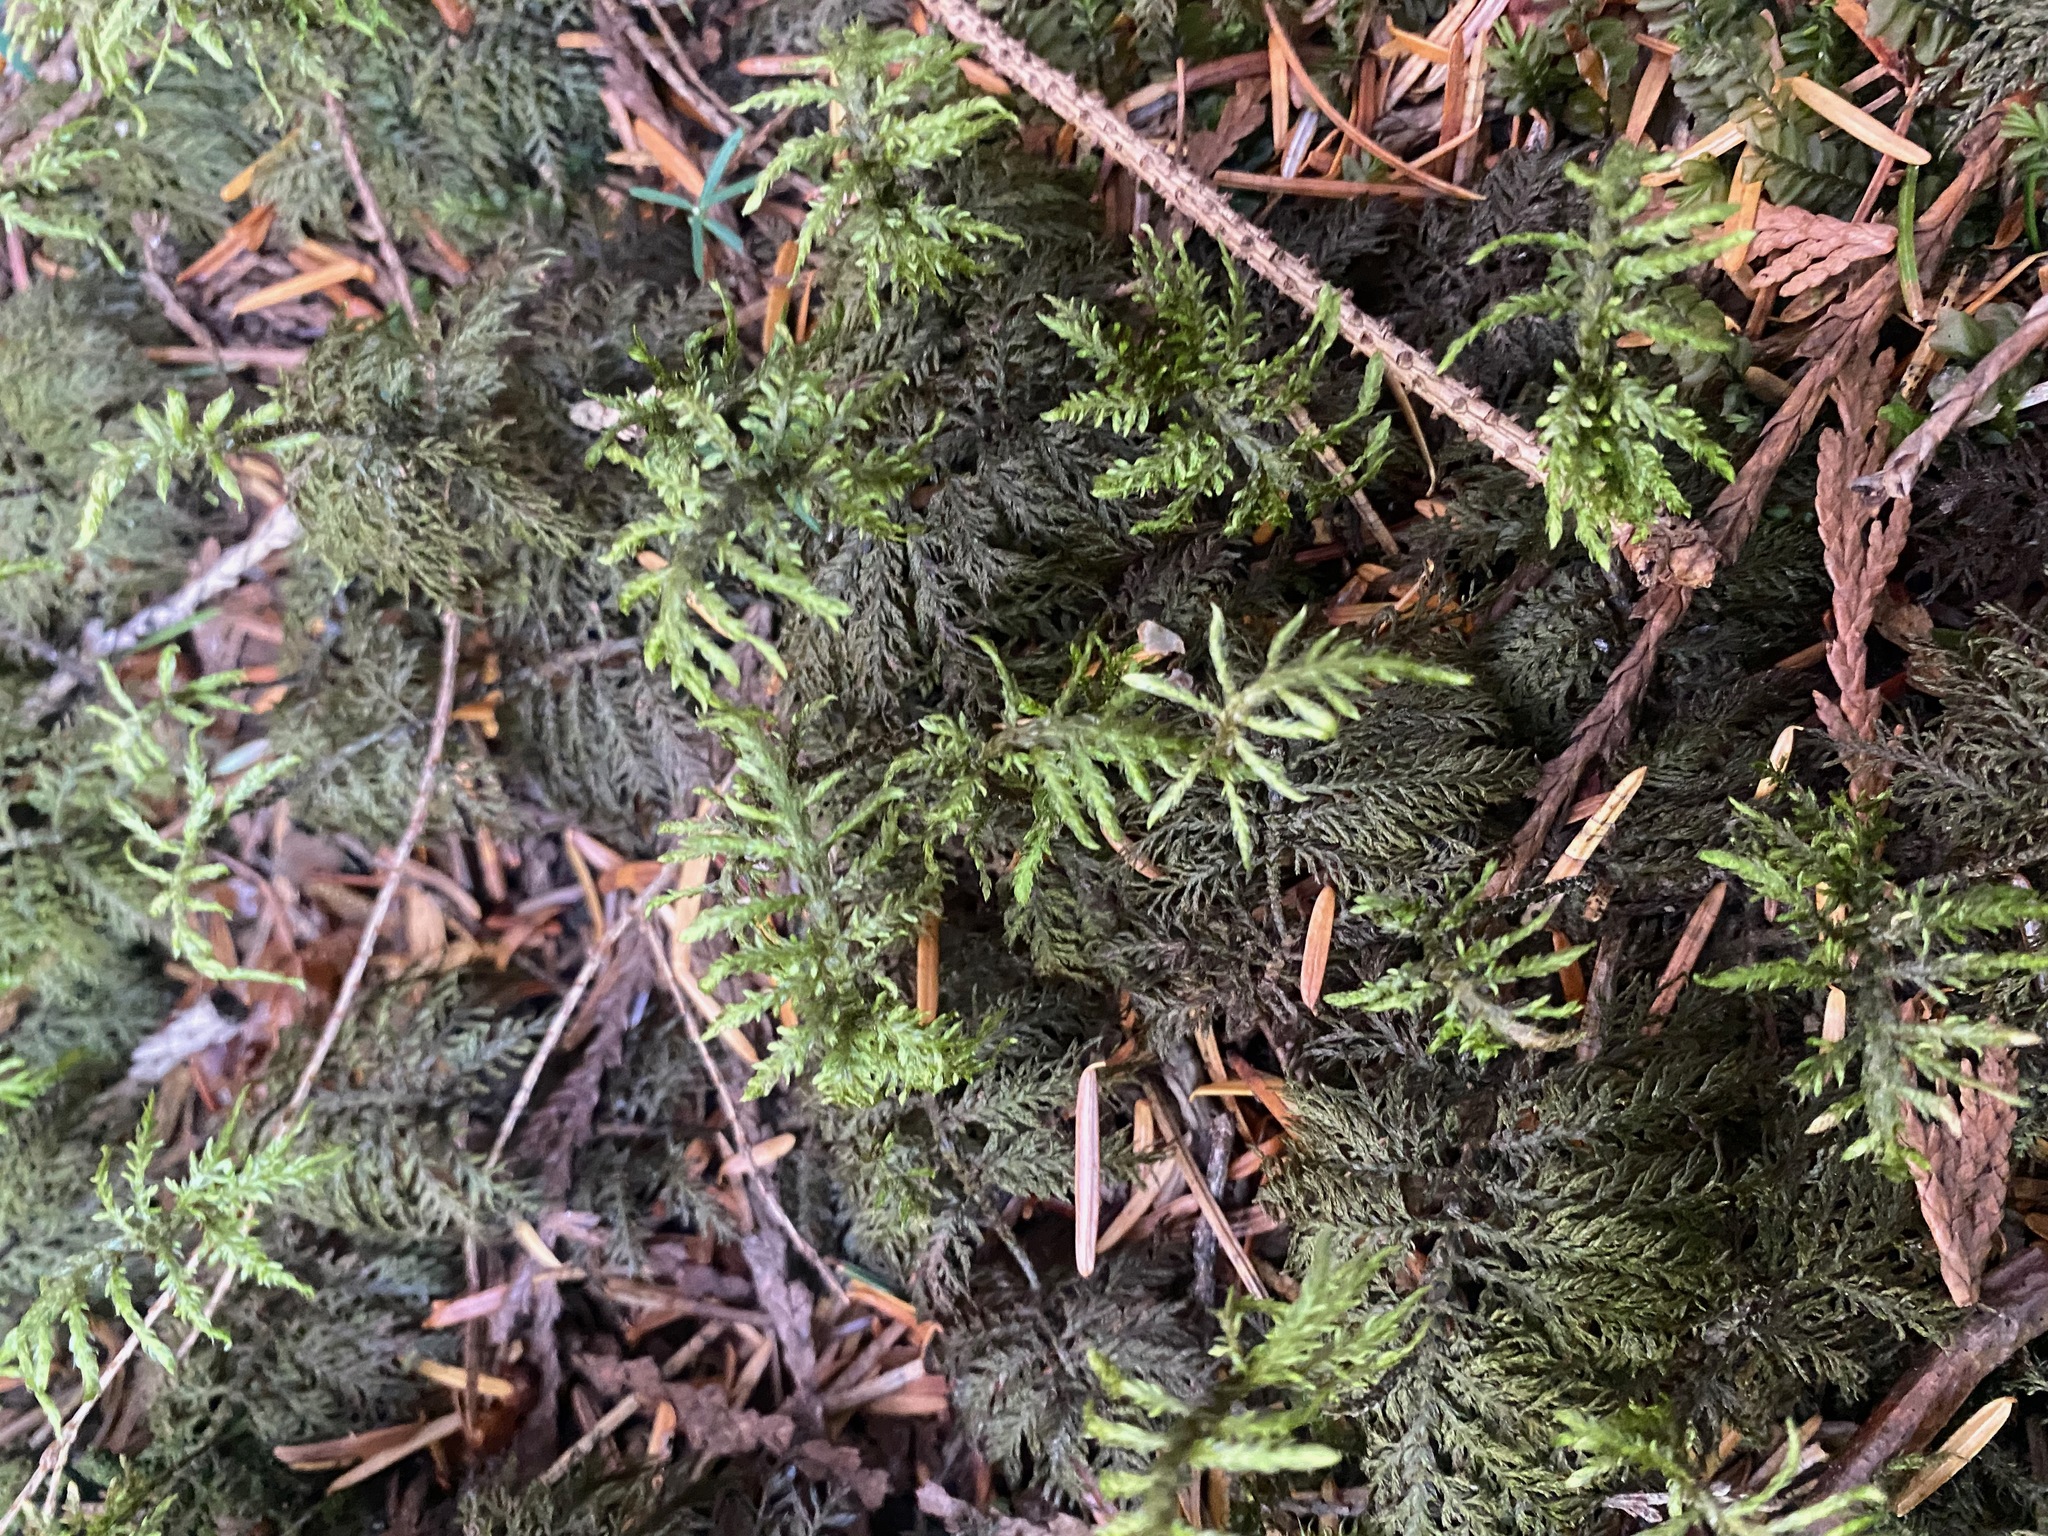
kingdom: Plantae
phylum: Bryophyta
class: Bryopsida
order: Hypnales
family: Hylocomiaceae
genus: Hylocomium
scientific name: Hylocomium splendens
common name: Stairstep moss
